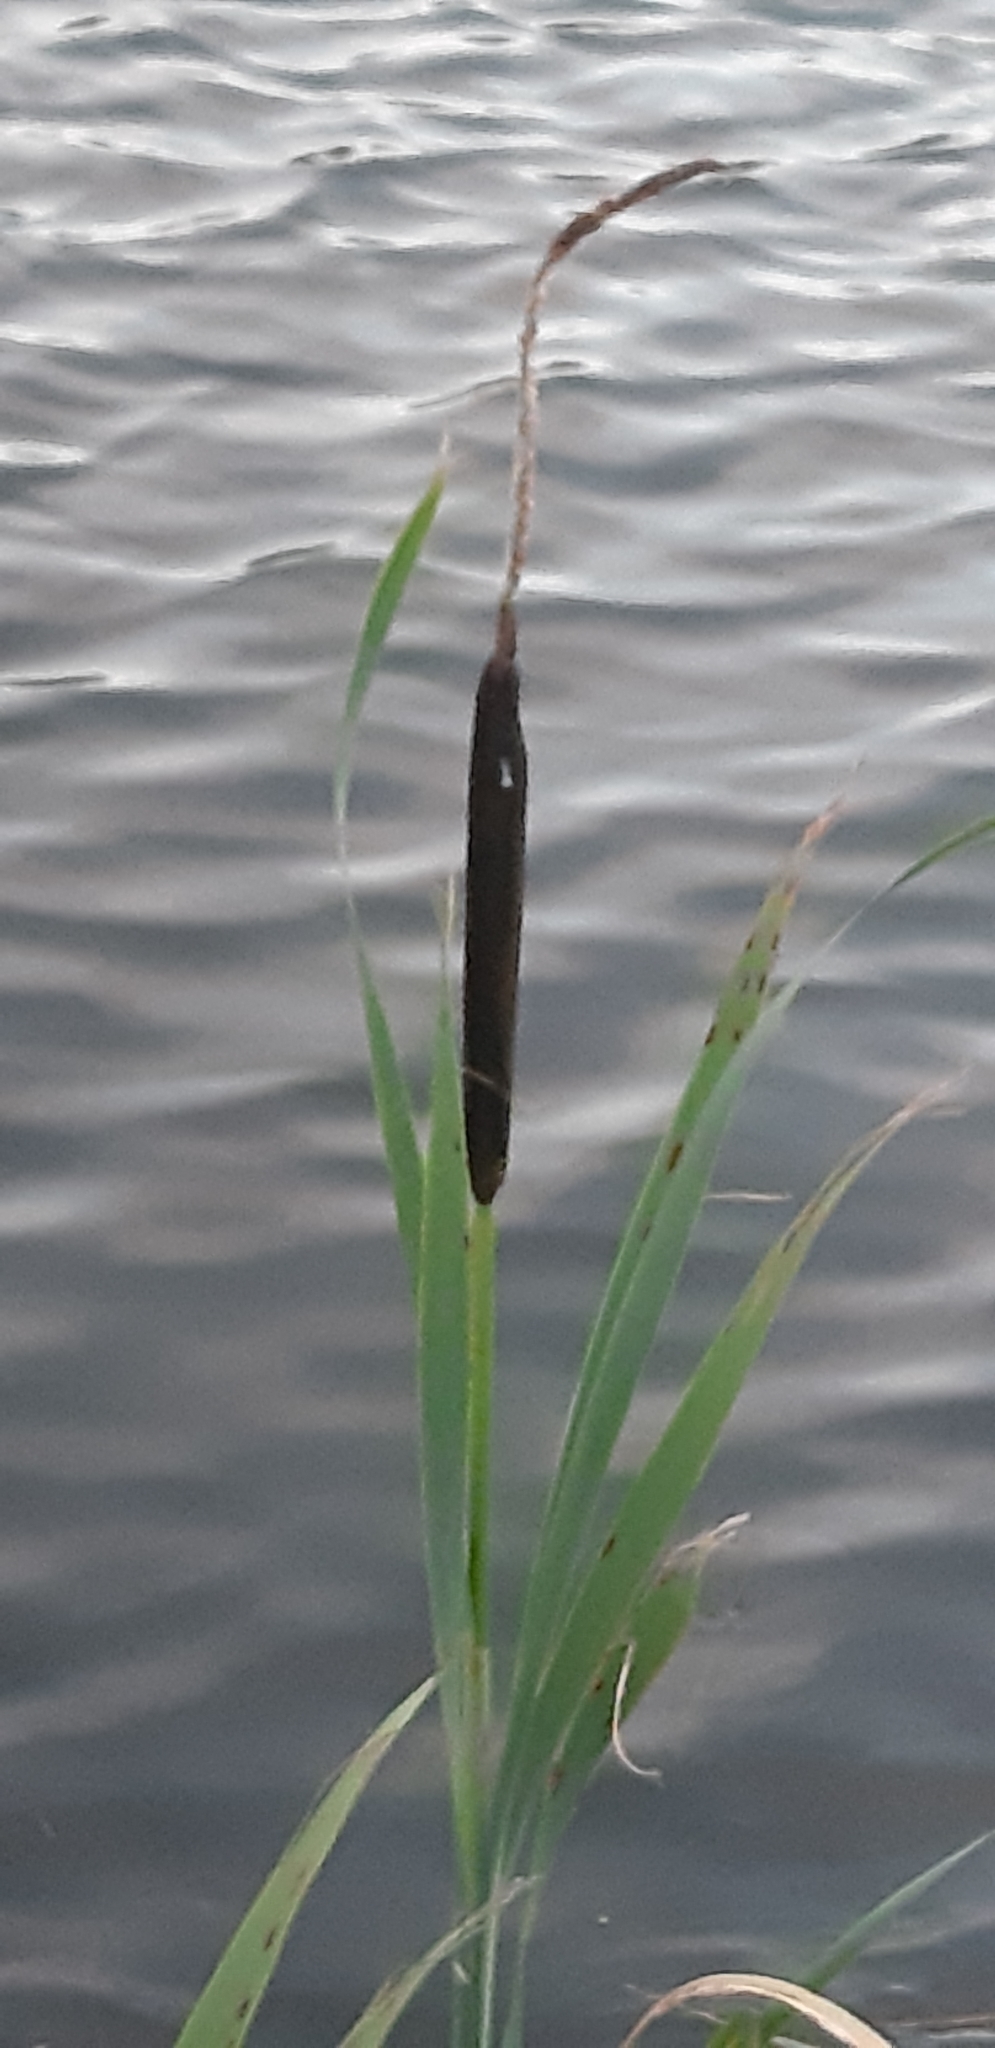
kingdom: Plantae
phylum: Tracheophyta
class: Liliopsida
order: Poales
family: Typhaceae
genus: Typha
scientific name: Typha latifolia
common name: Broadleaf cattail
